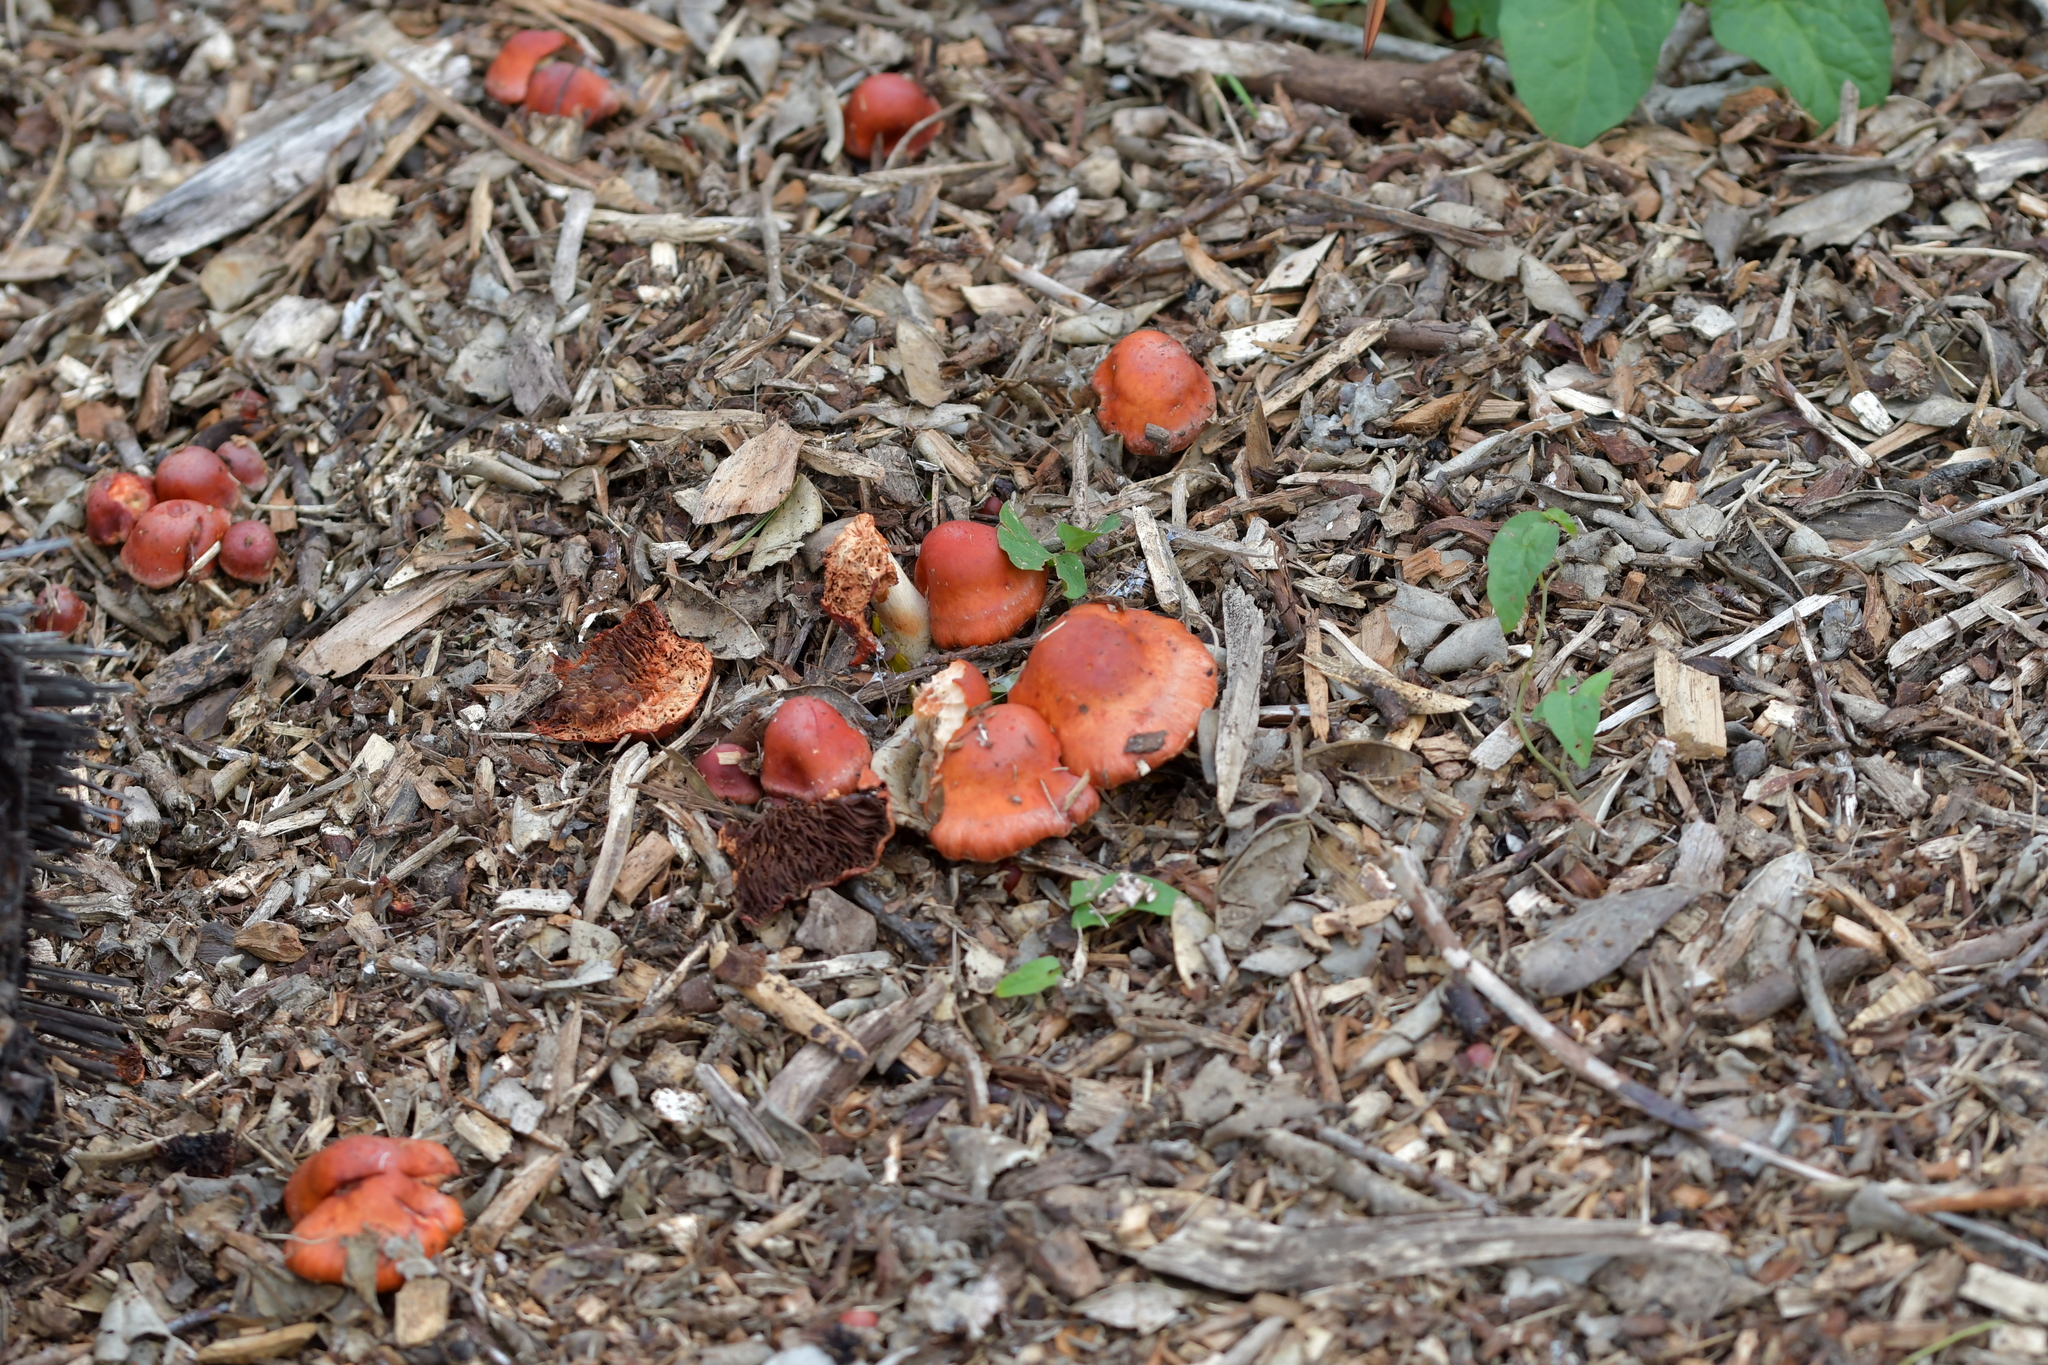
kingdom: Fungi
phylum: Basidiomycota
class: Agaricomycetes
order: Agaricales
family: Strophariaceae
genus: Leratiomyces
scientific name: Leratiomyces ceres
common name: Redlead roundhead
